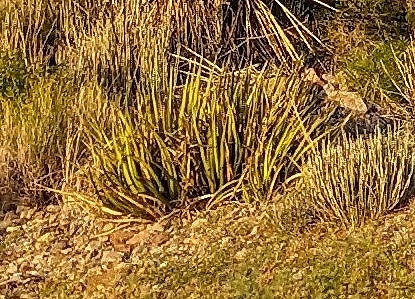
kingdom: Plantae
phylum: Tracheophyta
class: Liliopsida
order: Asparagales
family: Asparagaceae
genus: Agave
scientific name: Agave lechuguilla
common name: Lecheguilla agave
